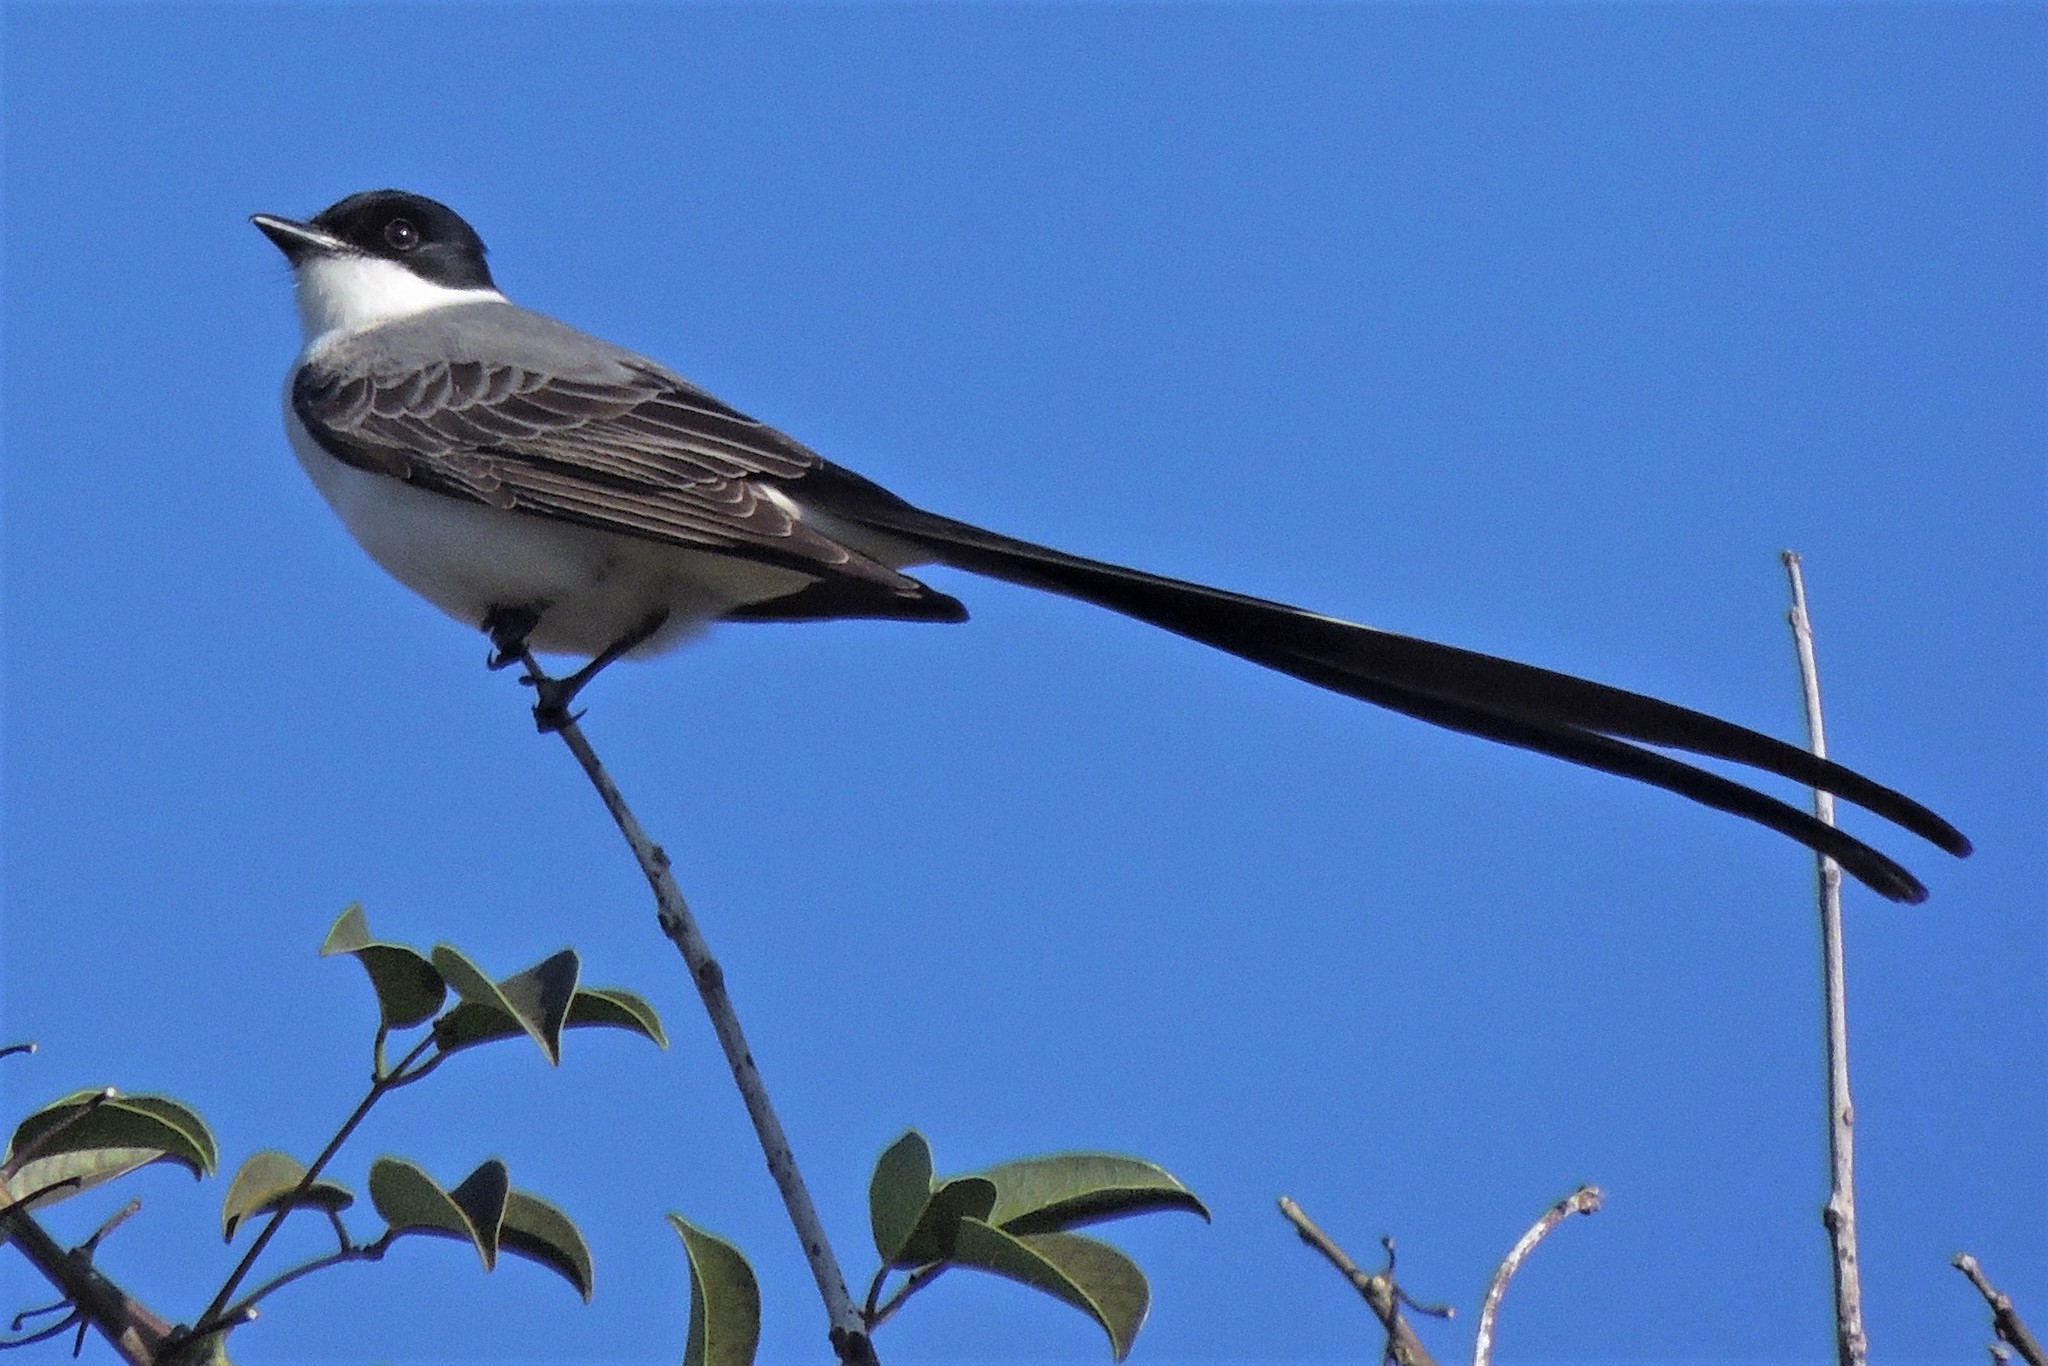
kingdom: Animalia
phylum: Chordata
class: Aves
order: Passeriformes
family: Tyrannidae
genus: Tyrannus
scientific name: Tyrannus savana
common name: Fork-tailed flycatcher
